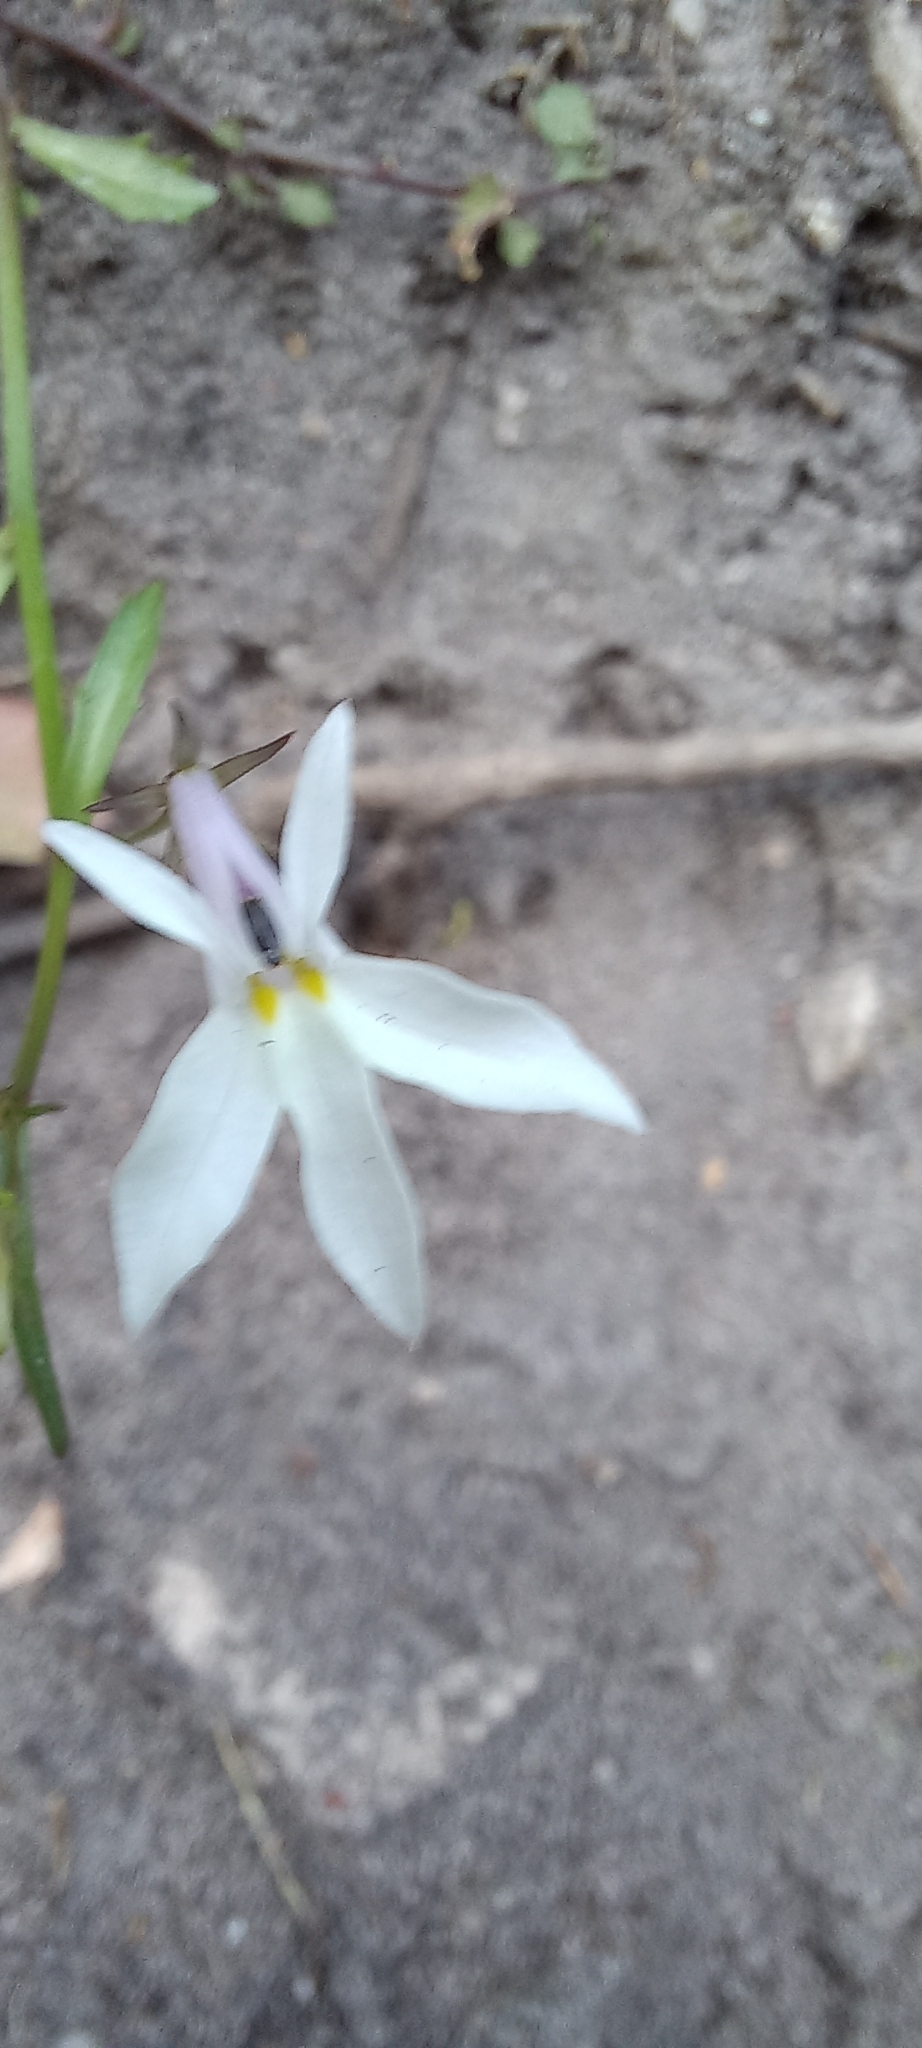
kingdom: Plantae
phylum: Tracheophyta
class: Magnoliopsida
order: Asterales
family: Campanulaceae
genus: Lobelia
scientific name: Lobelia pubescens
